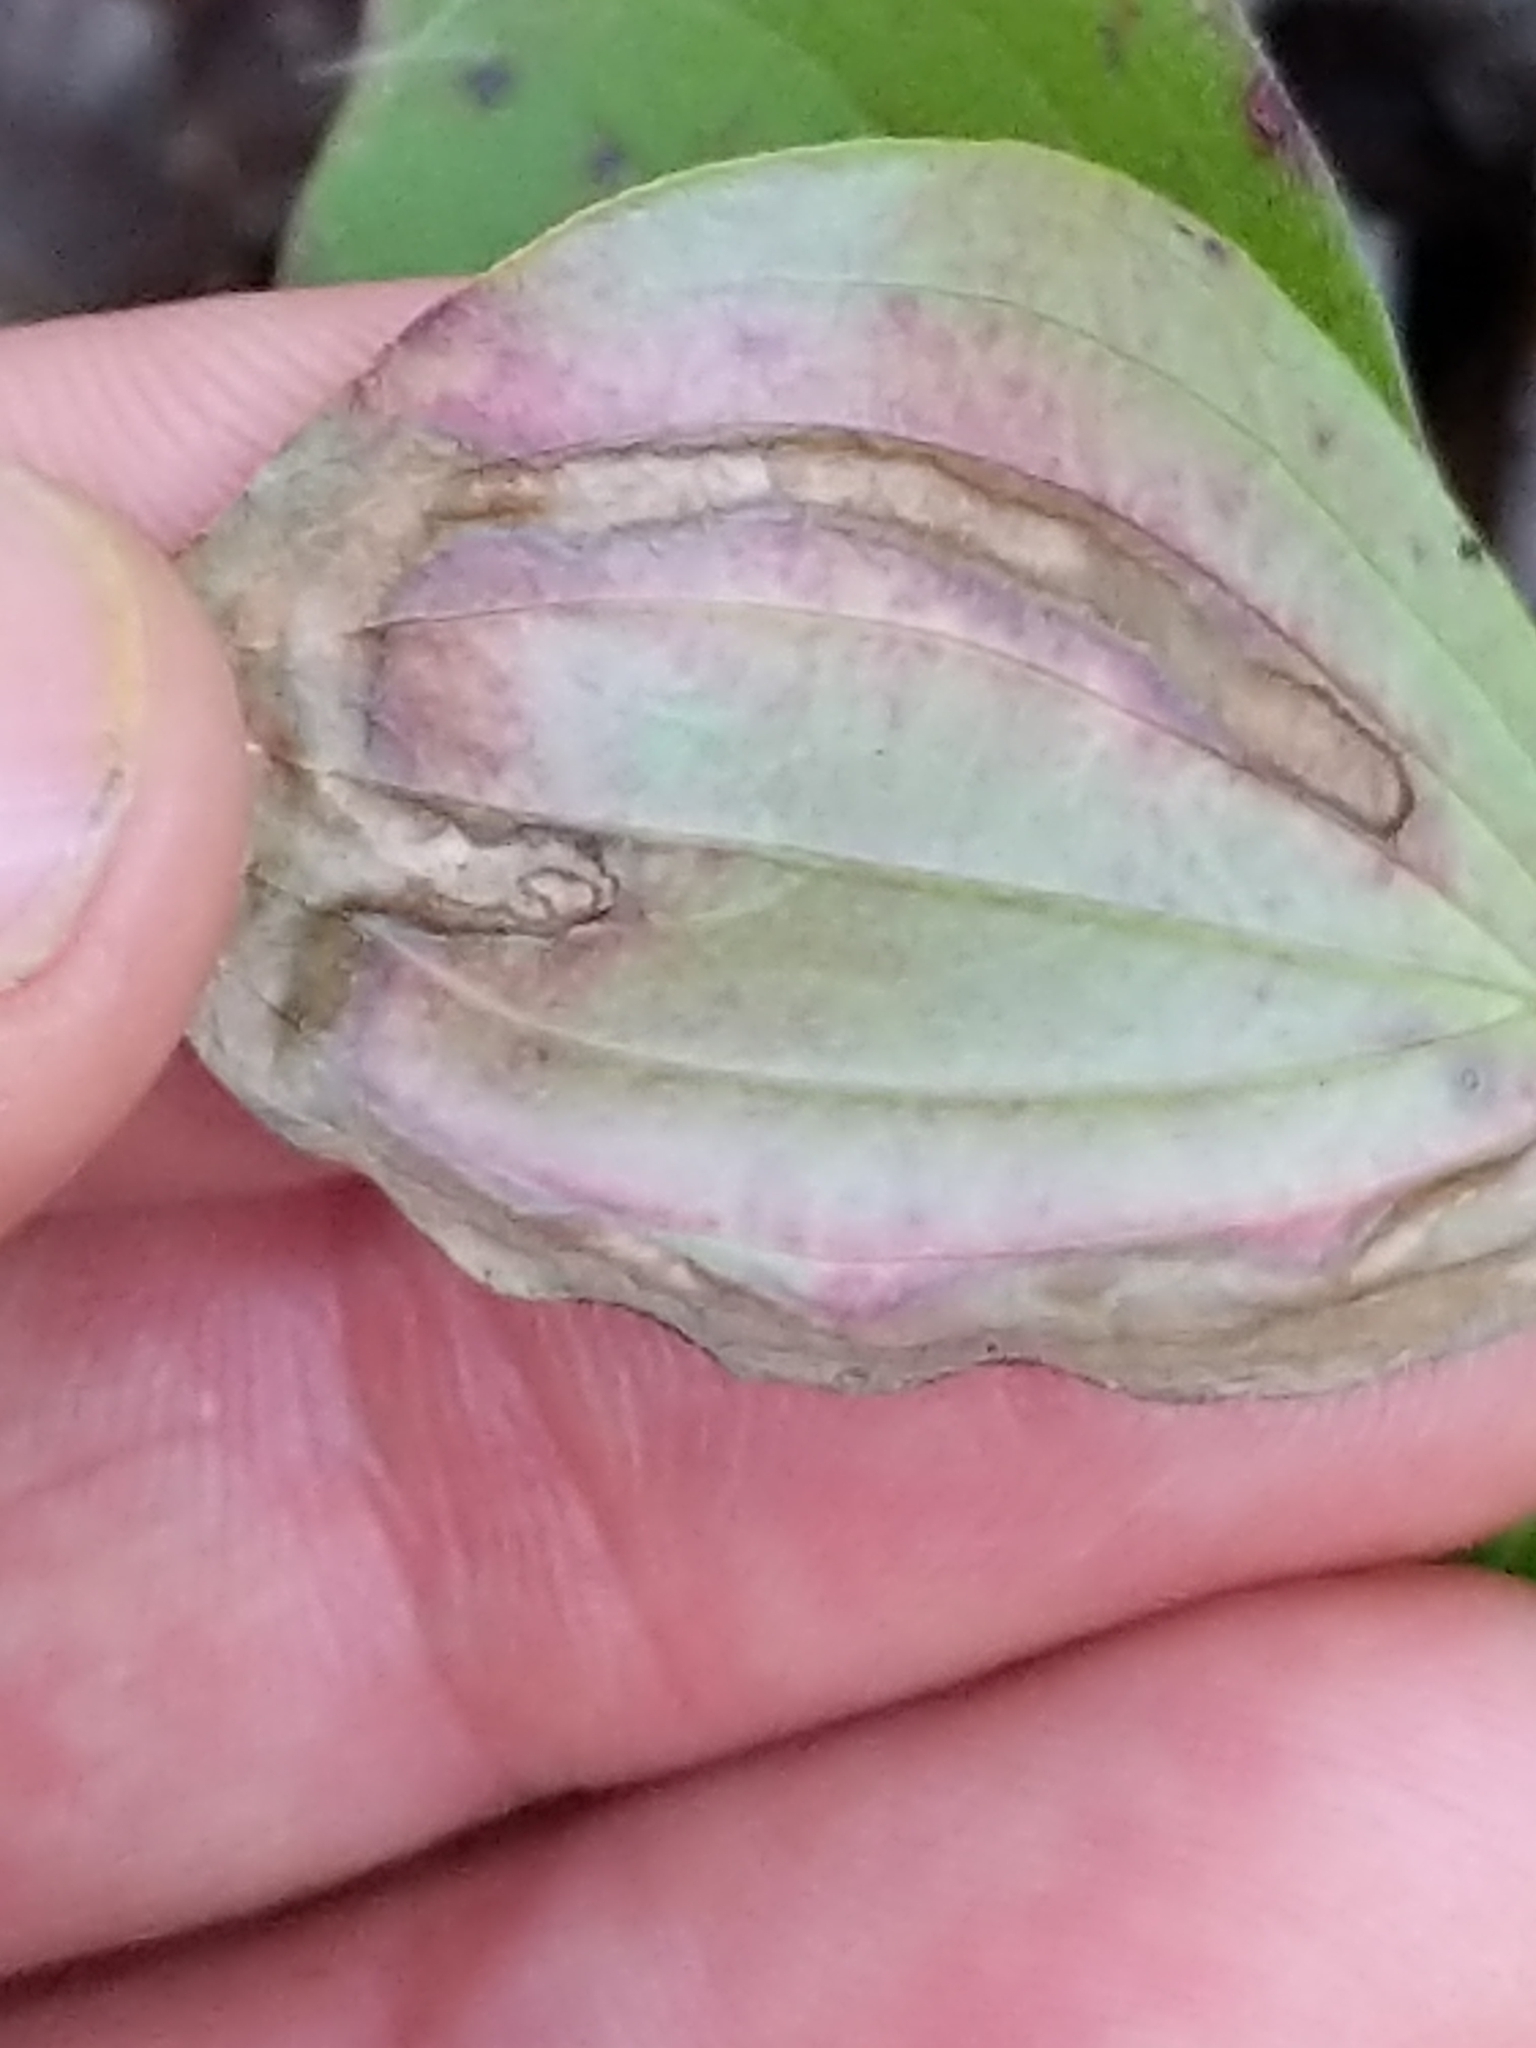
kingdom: Animalia
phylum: Arthropoda
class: Insecta
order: Diptera
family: Agromyzidae
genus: Phytomyza
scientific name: Phytomyza agromyzina
